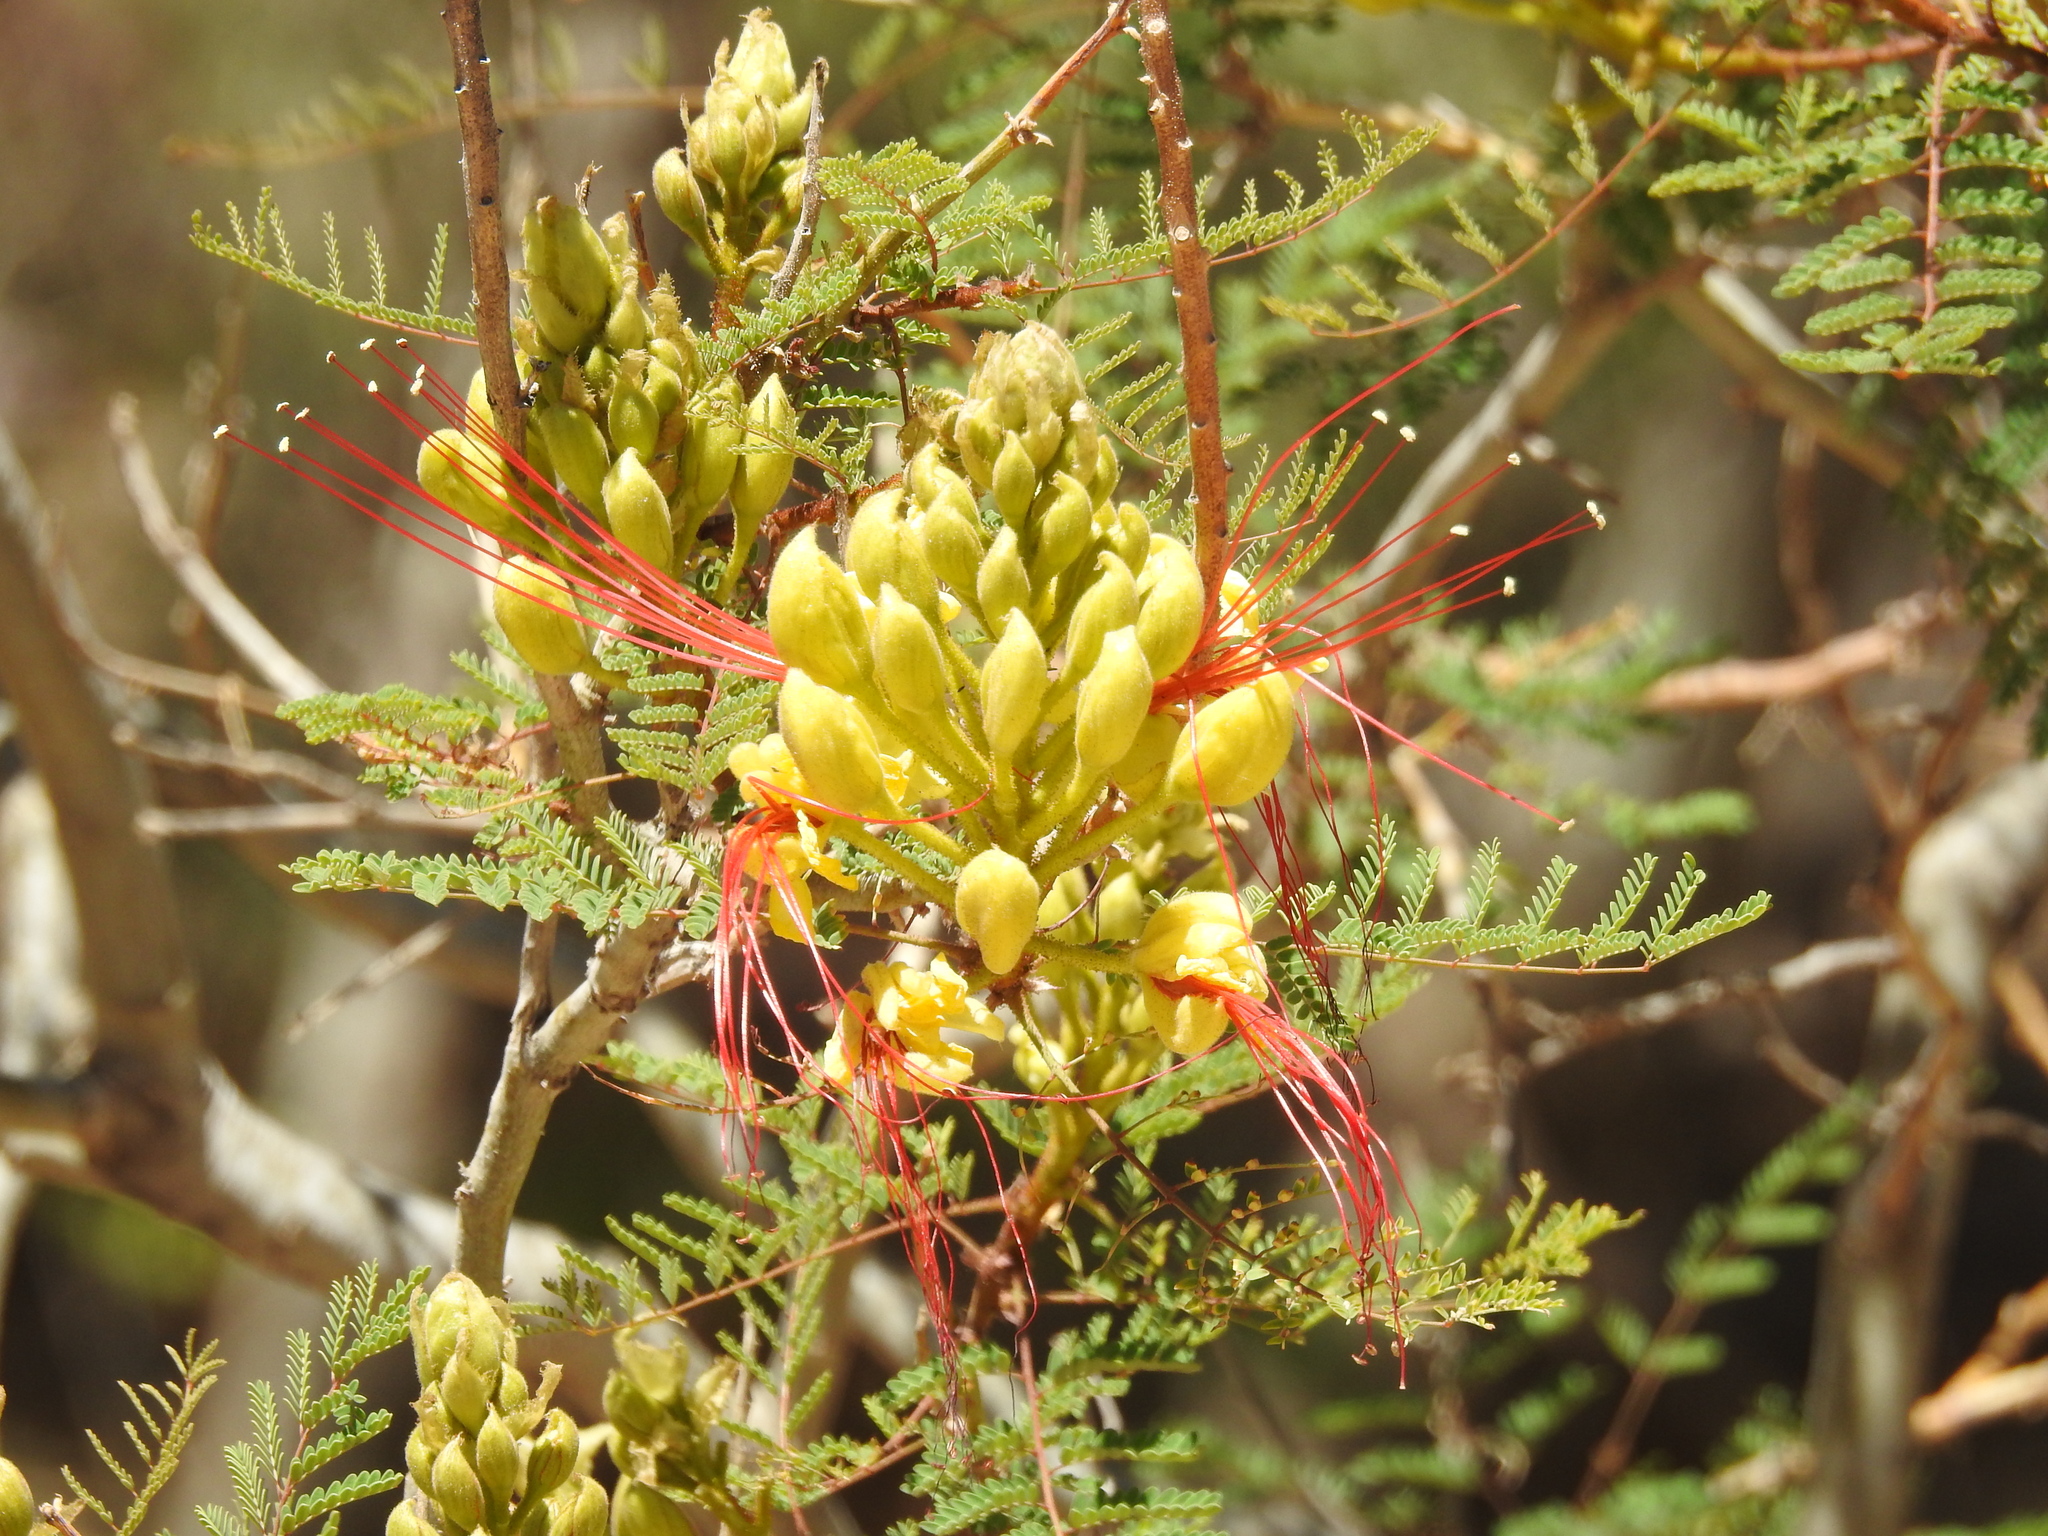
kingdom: Plantae
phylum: Tracheophyta
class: Magnoliopsida
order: Fabales
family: Fabaceae
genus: Erythrostemon
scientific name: Erythrostemon gilliesii
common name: Bird-of-paradise shrub
